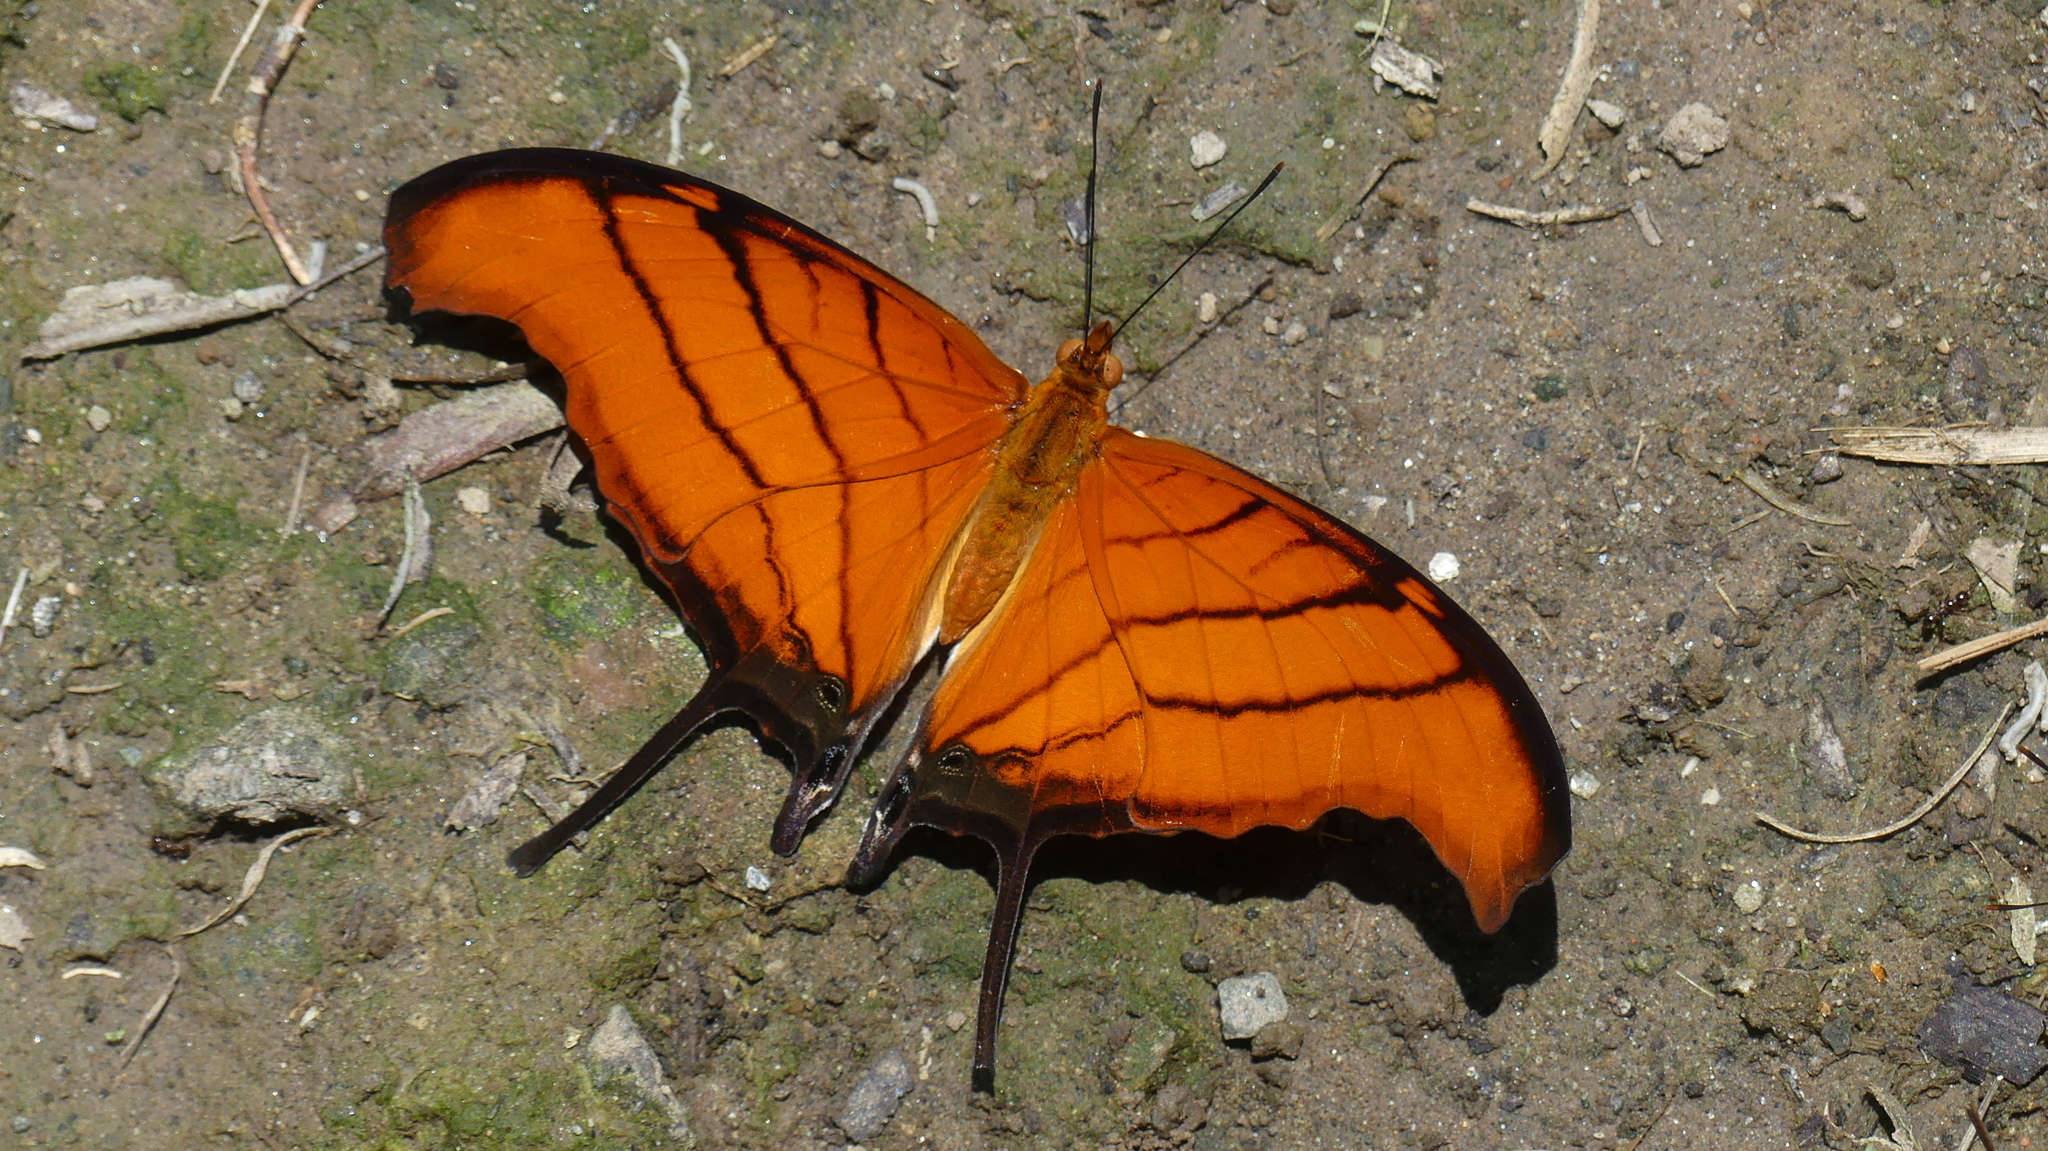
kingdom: Animalia
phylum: Arthropoda
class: Insecta
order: Lepidoptera
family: Nymphalidae
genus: Marpesia
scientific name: Marpesia petreus
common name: Red dagger wing
